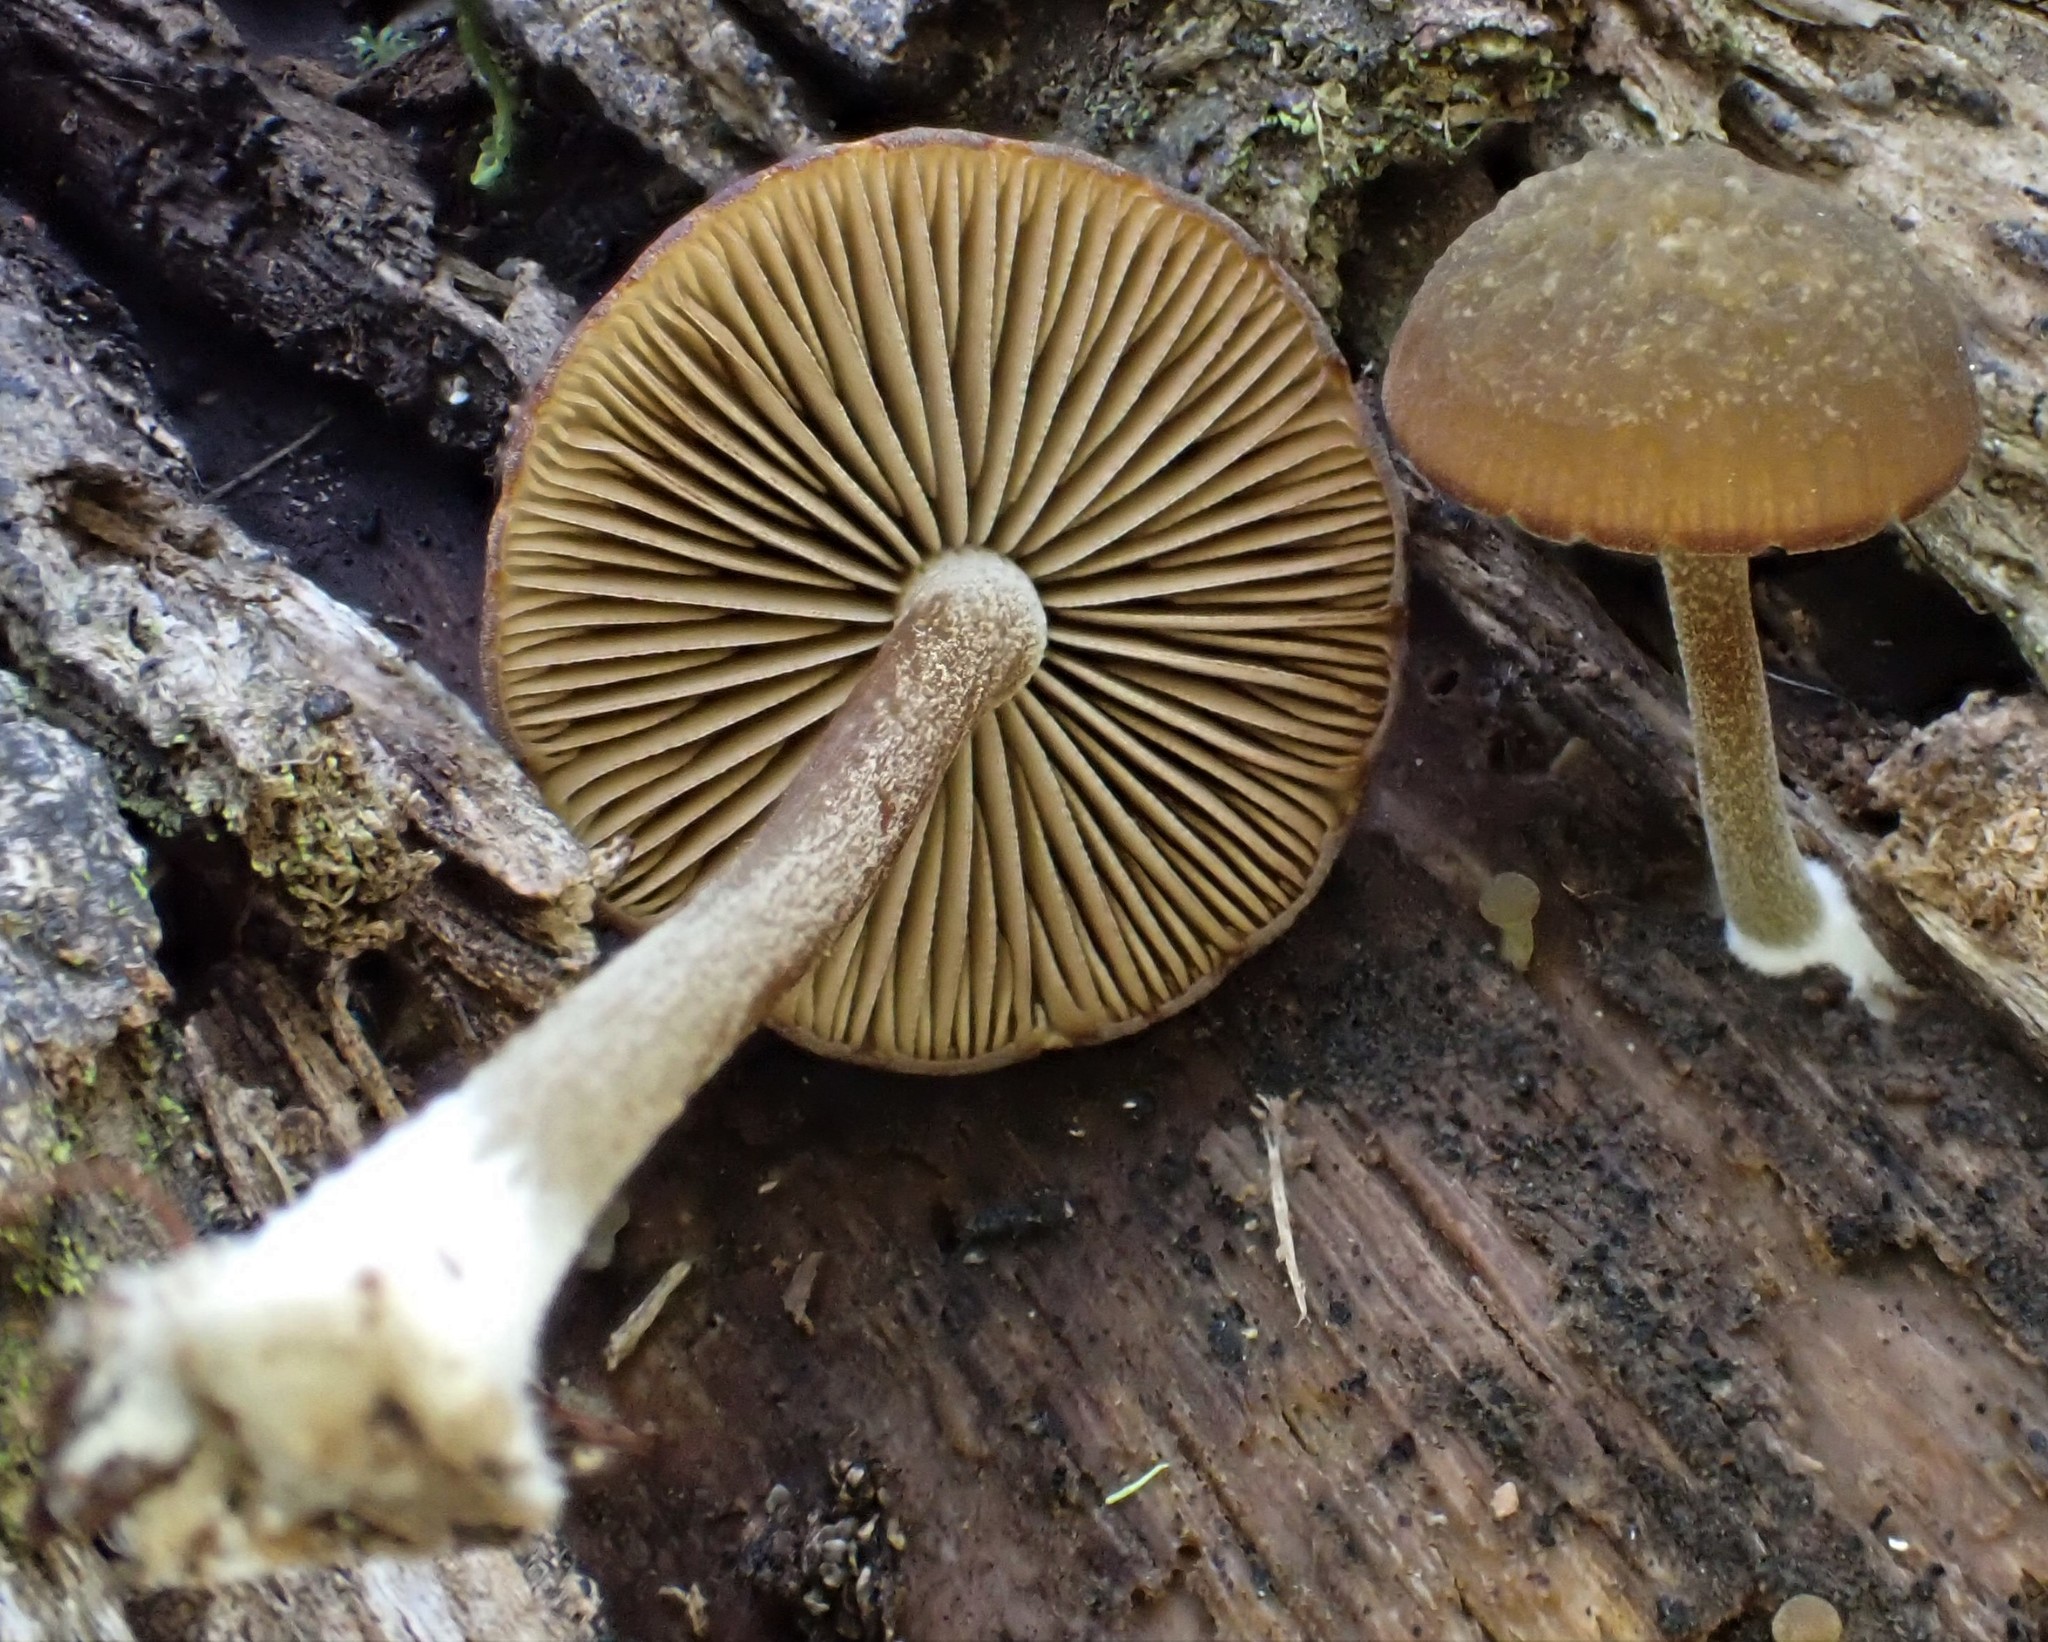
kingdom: Fungi
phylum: Basidiomycota
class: Agaricomycetes
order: Agaricales
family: Crepidotaceae
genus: Simocybe
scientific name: Simocybe phlebophora
